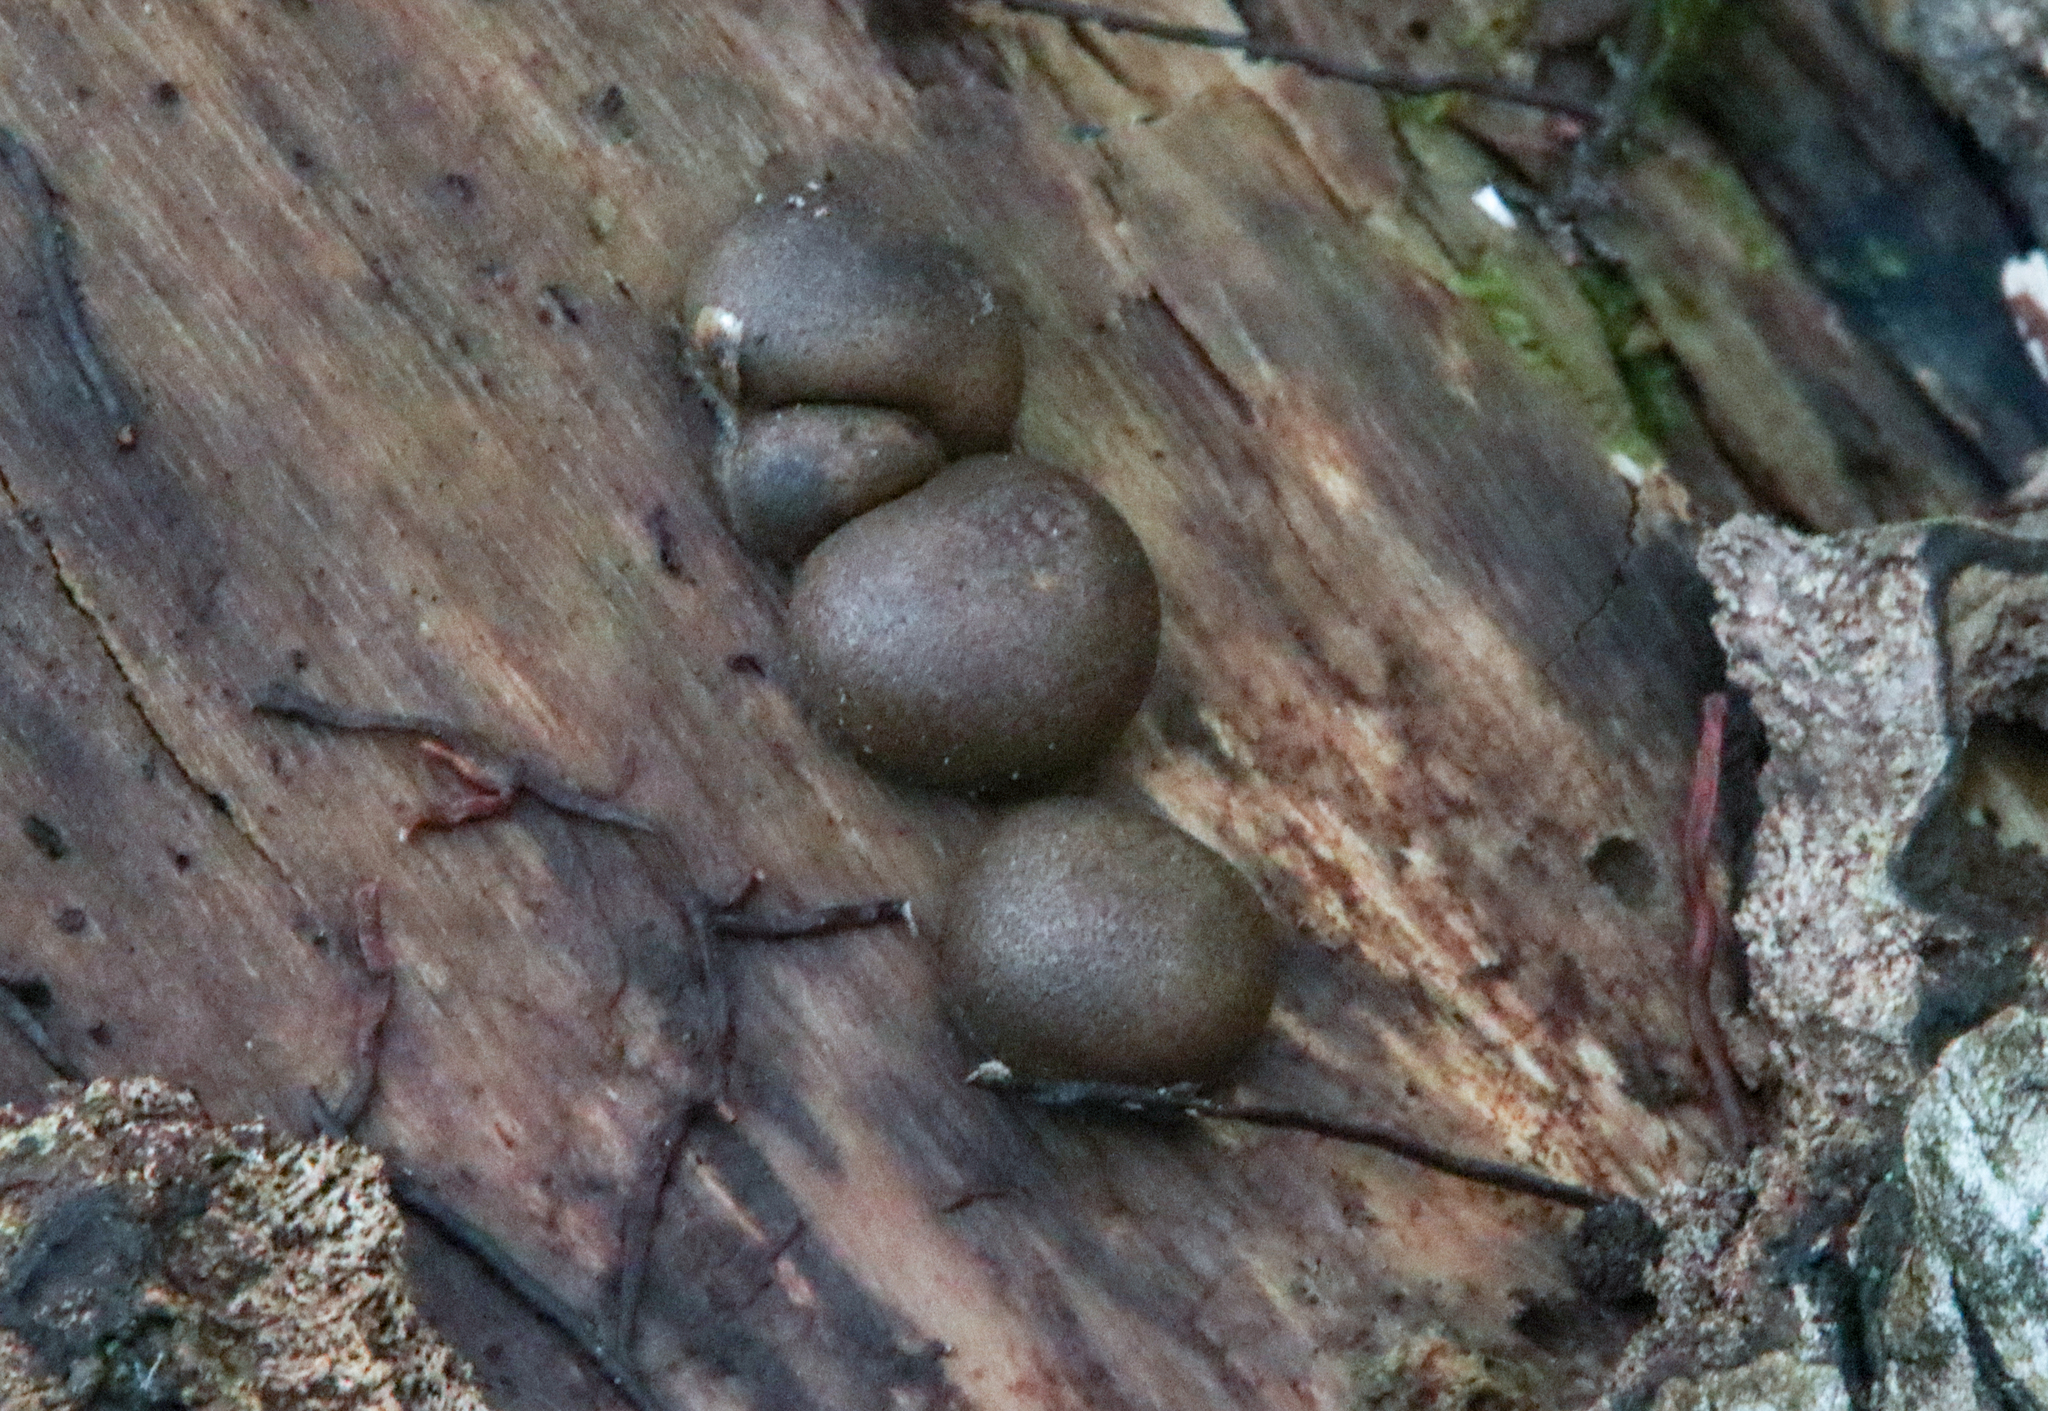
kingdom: Protozoa
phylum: Mycetozoa
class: Myxomycetes
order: Cribrariales
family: Tubiferaceae
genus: Lycogala
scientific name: Lycogala epidendrum
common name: Wolf's milk
